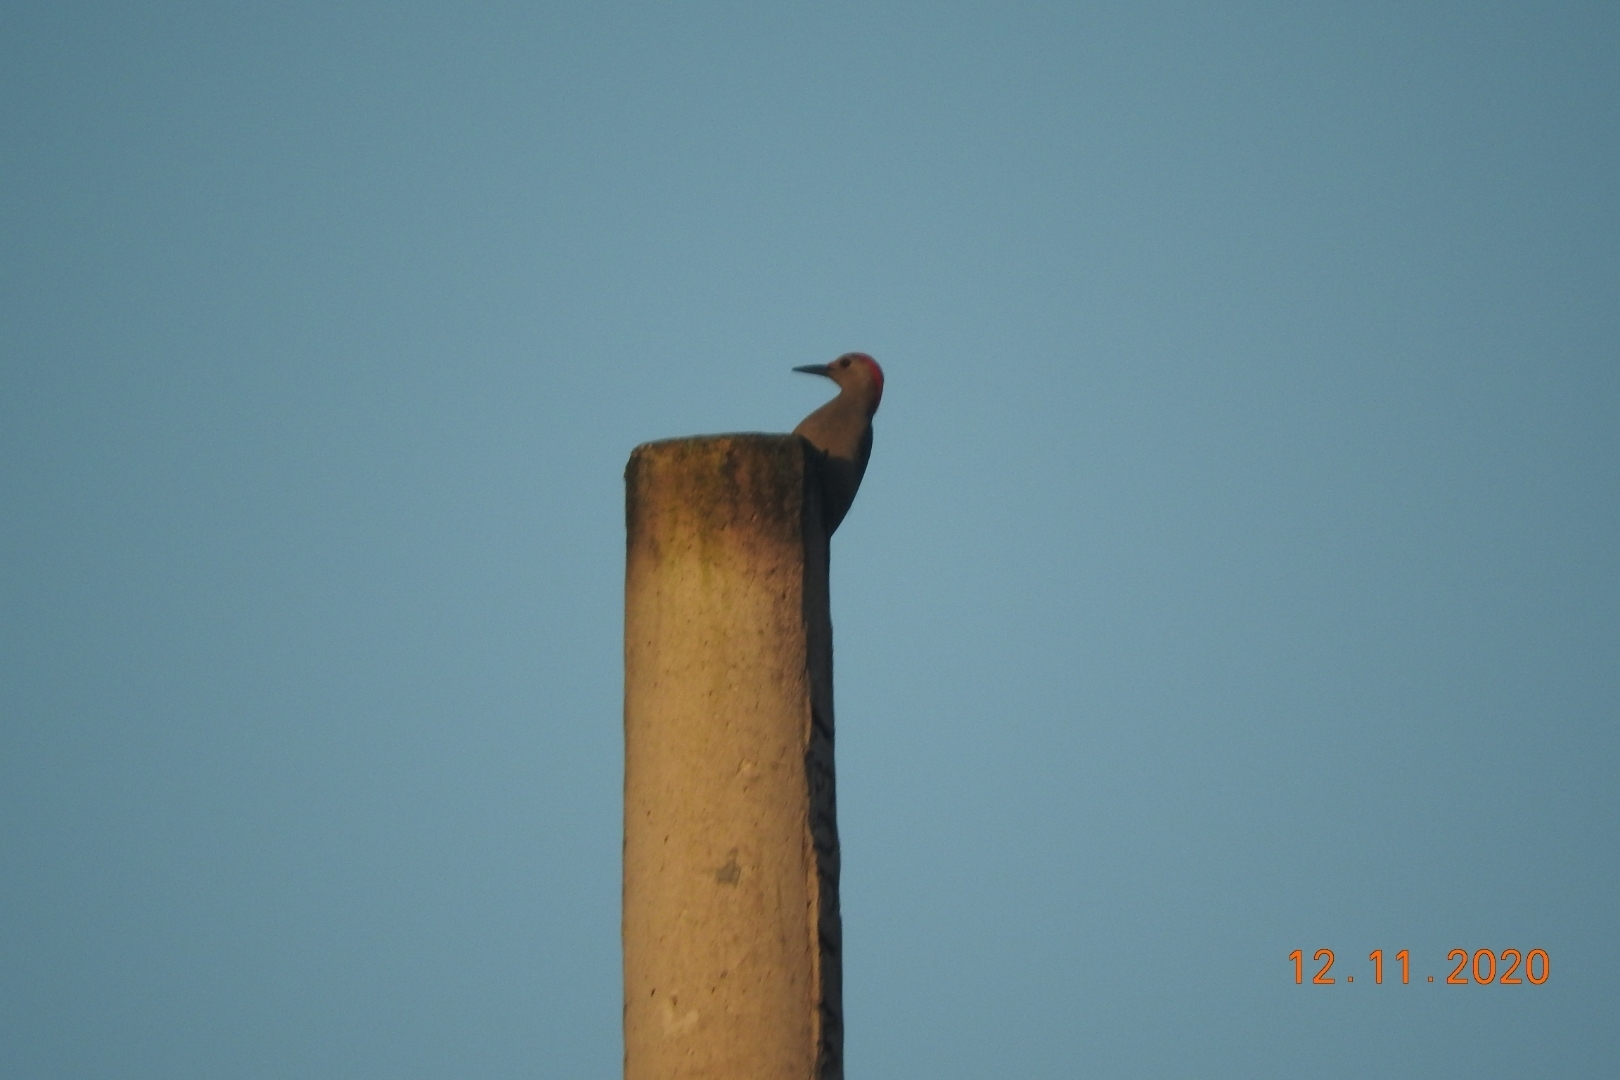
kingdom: Animalia
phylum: Chordata
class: Aves
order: Piciformes
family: Picidae
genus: Melanerpes
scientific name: Melanerpes aurifrons
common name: Golden-fronted woodpecker
